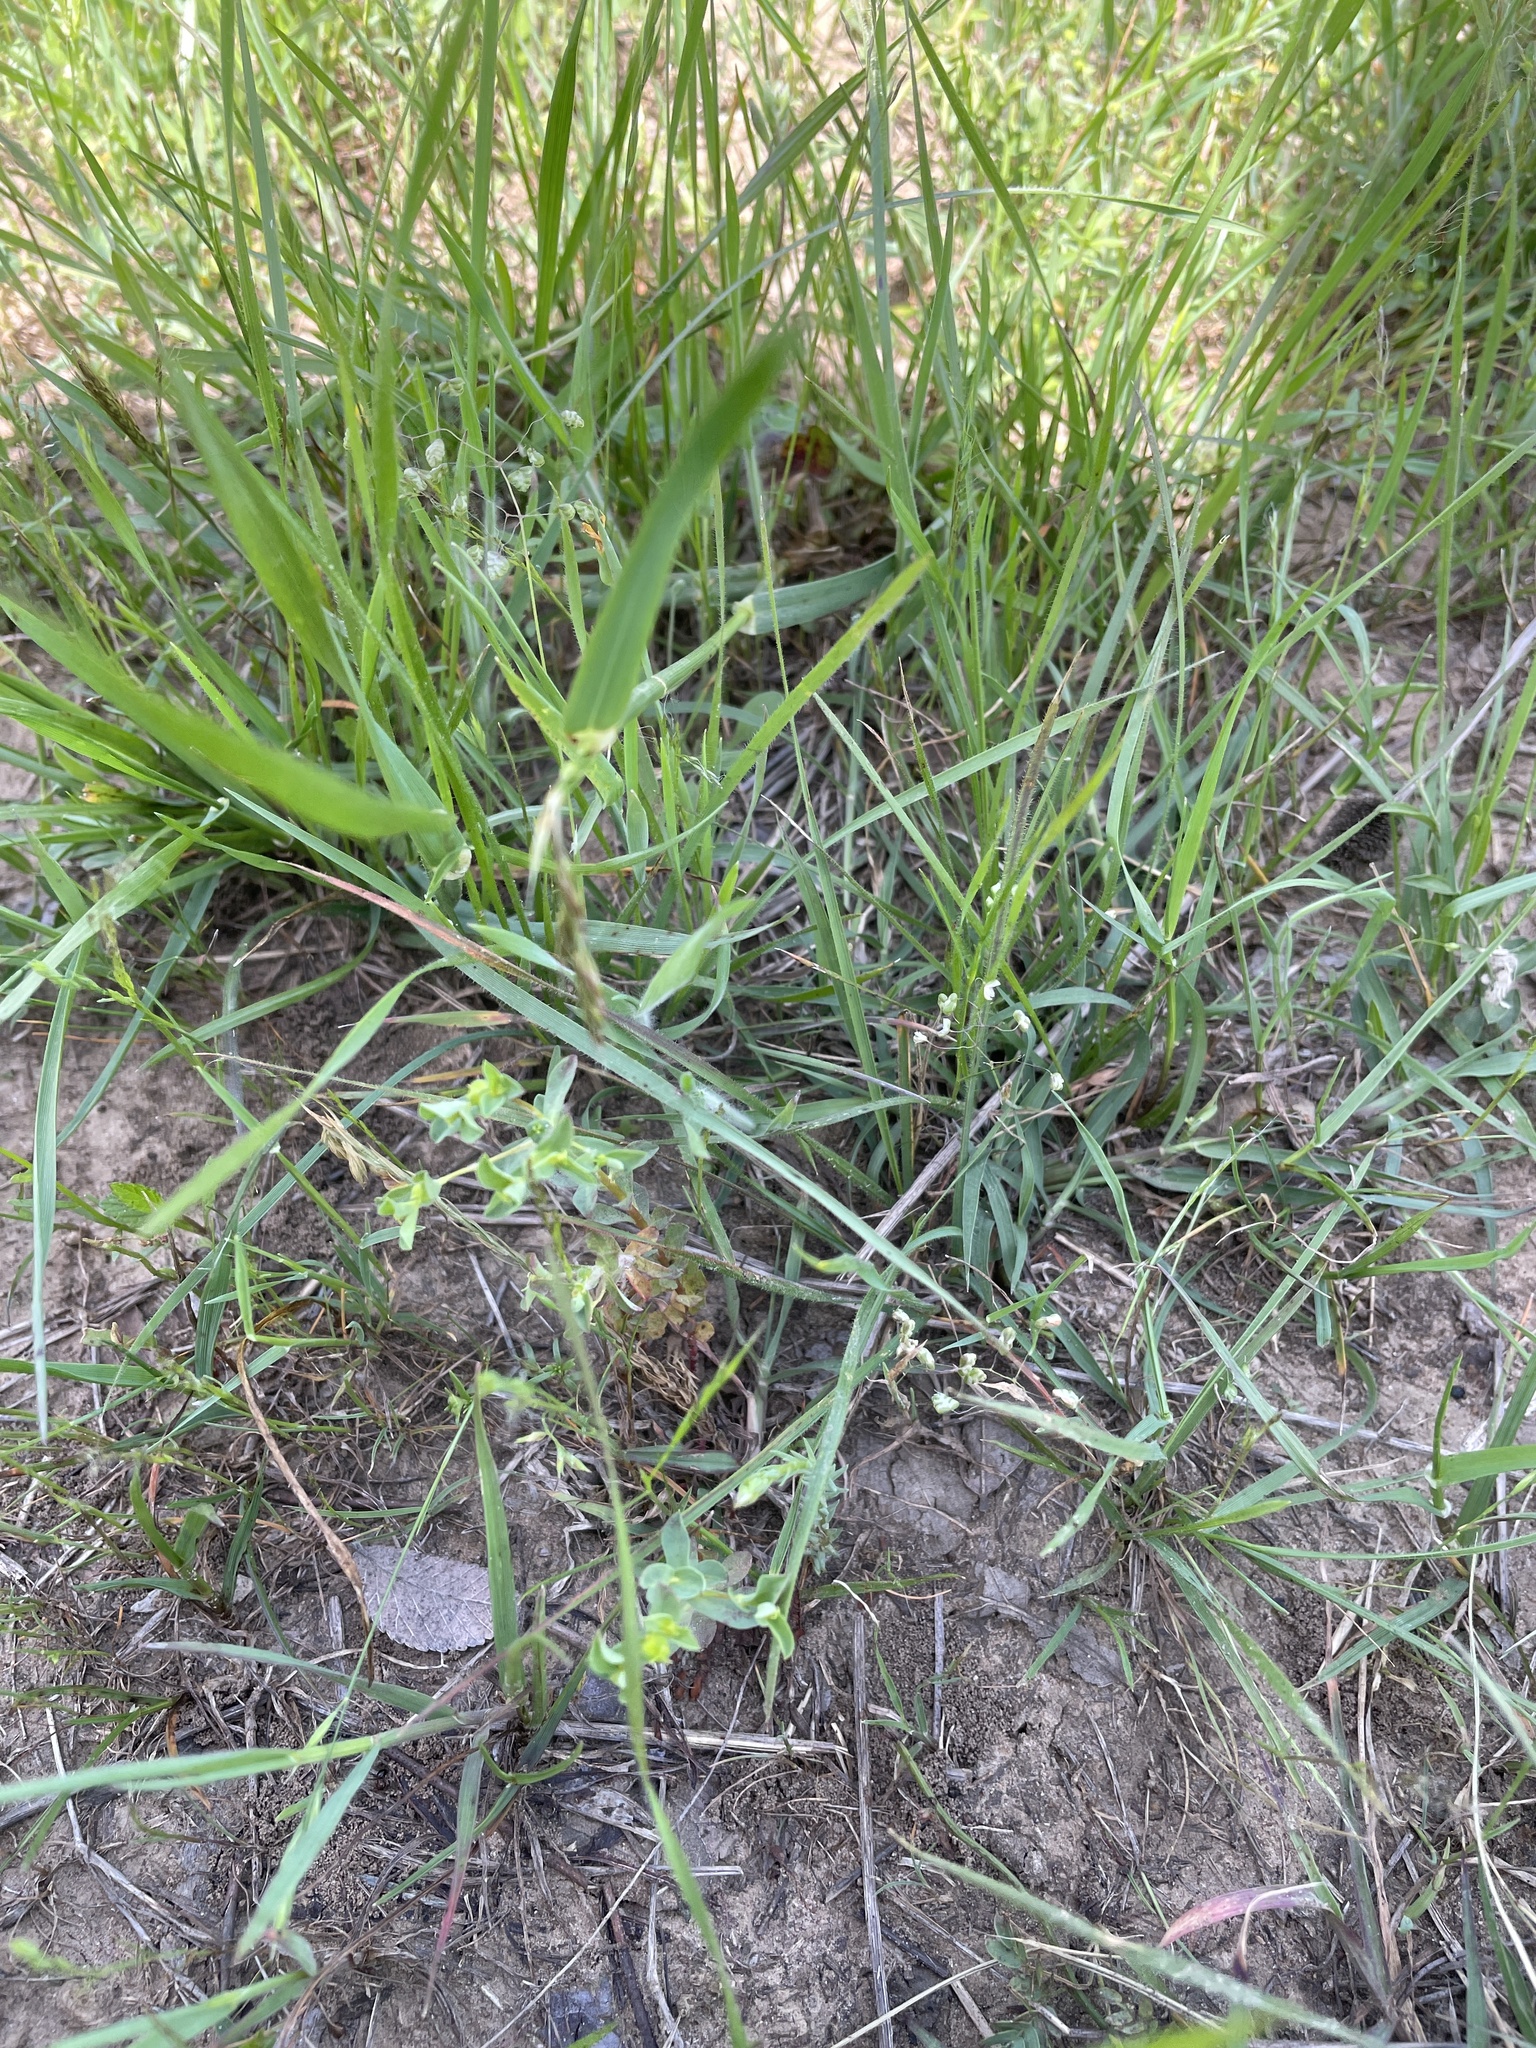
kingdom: Plantae
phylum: Tracheophyta
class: Liliopsida
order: Poales
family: Poaceae
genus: Briza
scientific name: Briza minor
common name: Lesser quaking-grass
